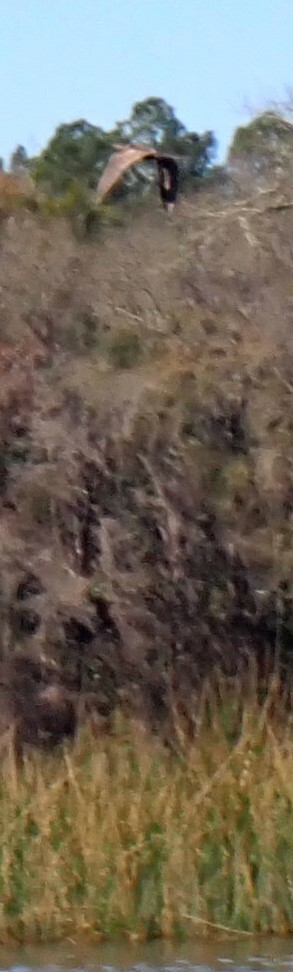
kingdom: Animalia
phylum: Chordata
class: Aves
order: Pelecaniformes
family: Ardeidae
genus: Botaurus
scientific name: Botaurus lentiginosus
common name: American bittern
